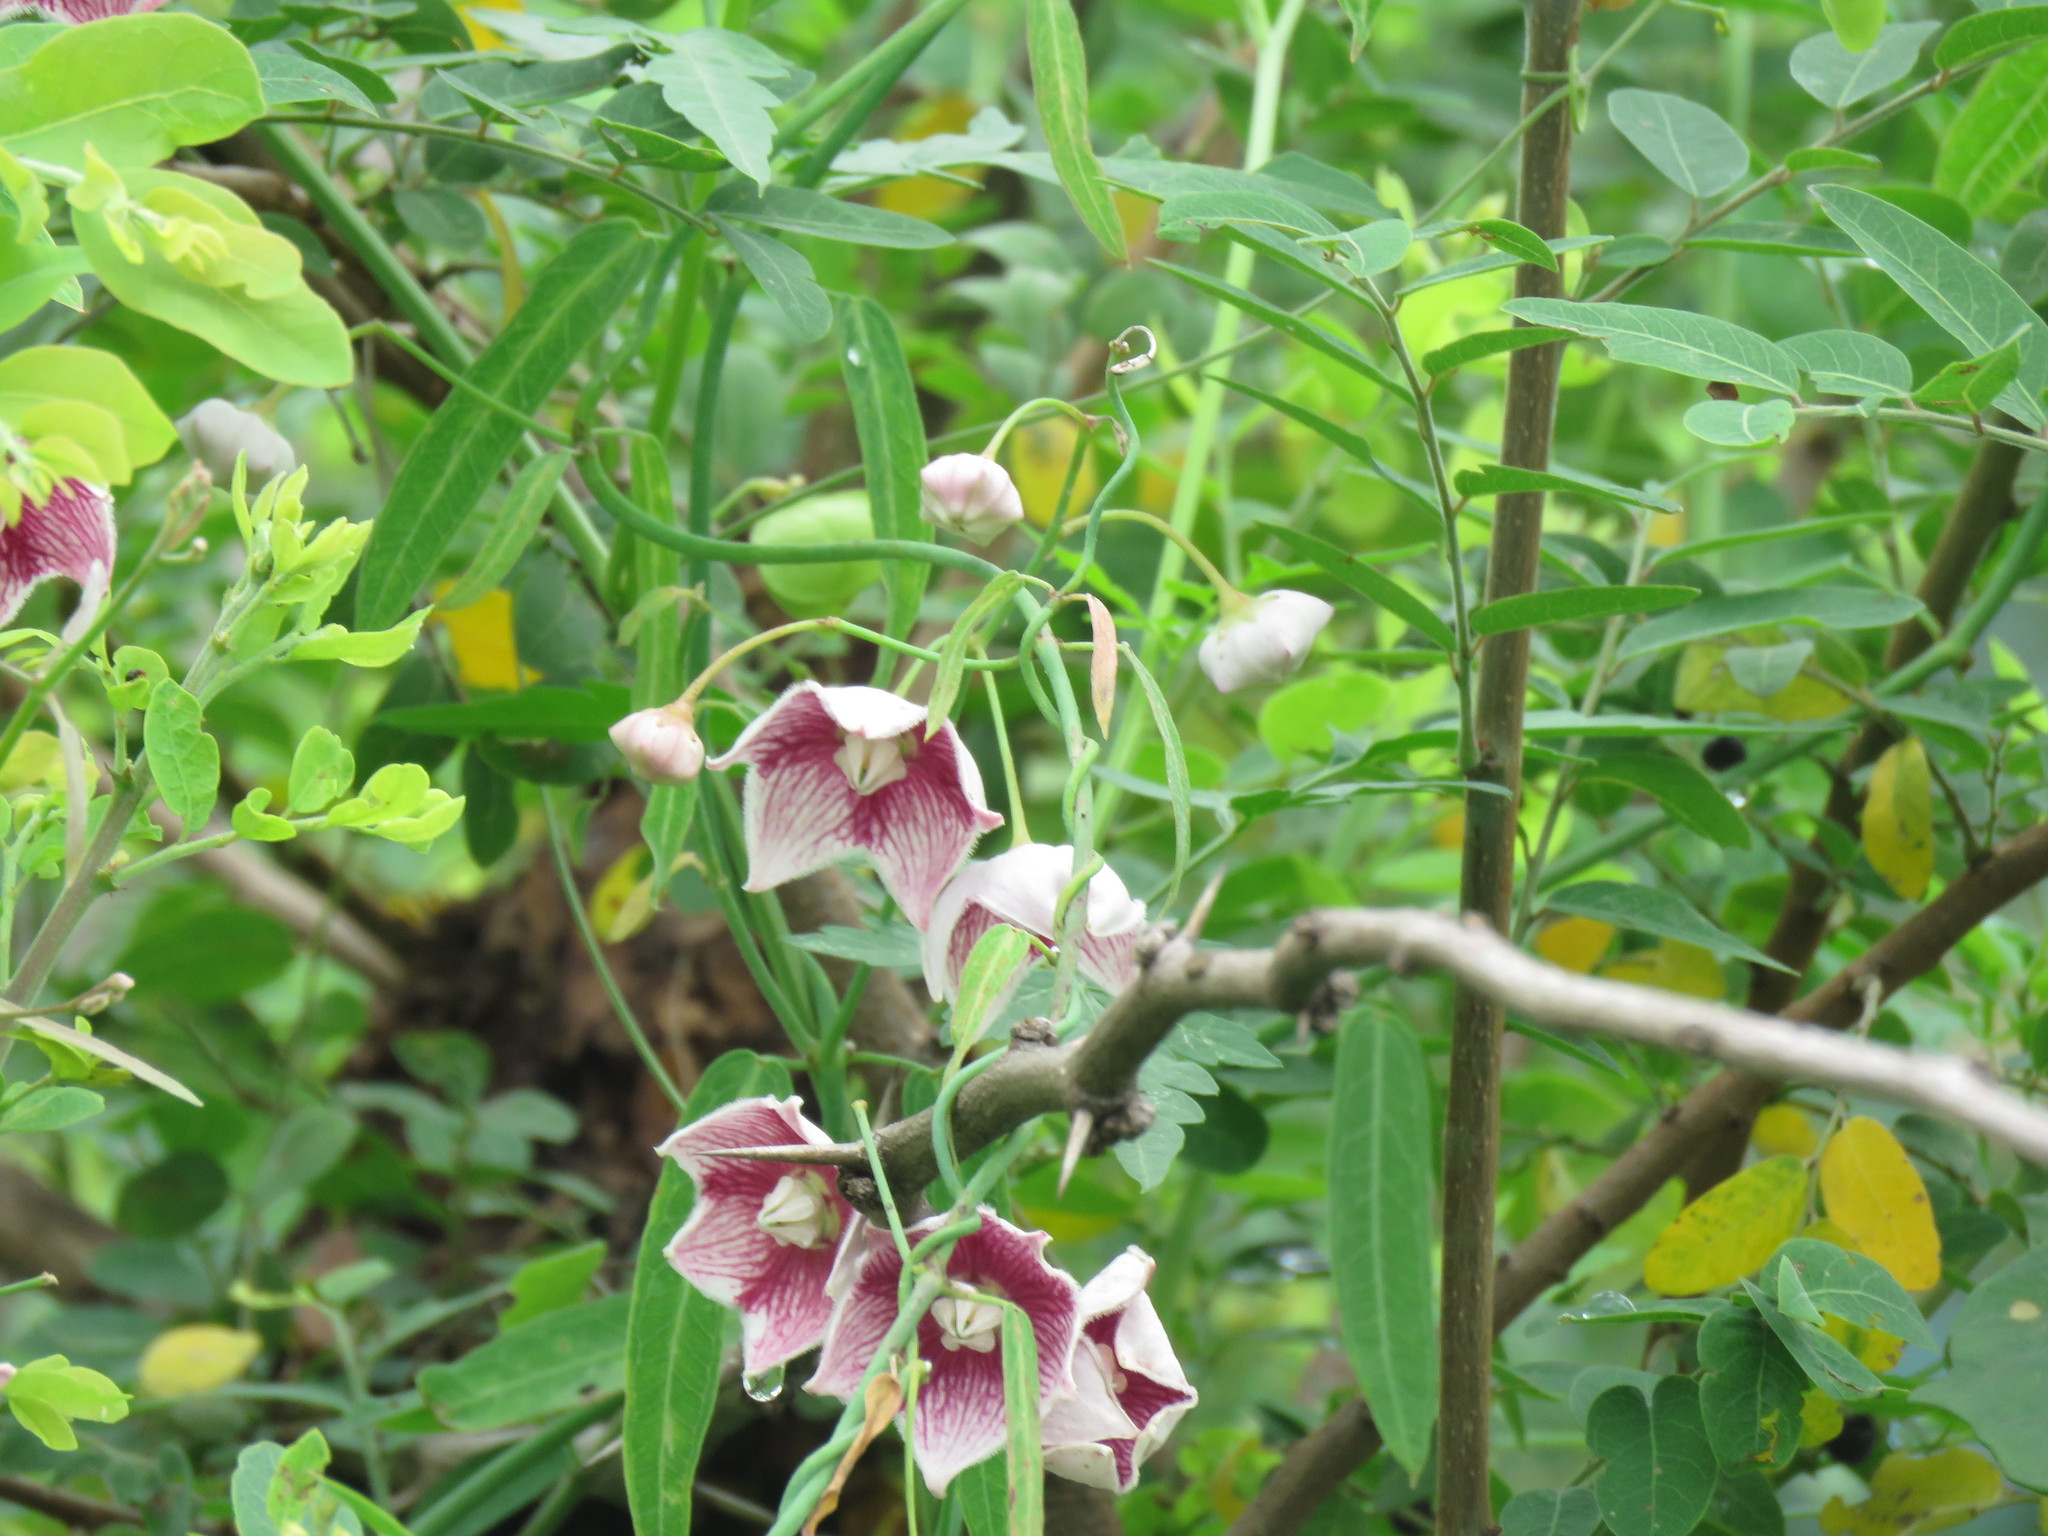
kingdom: Plantae
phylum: Tracheophyta
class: Magnoliopsida
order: Gentianales
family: Apocynaceae
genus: Oxystelma
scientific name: Oxystelma wallichii
